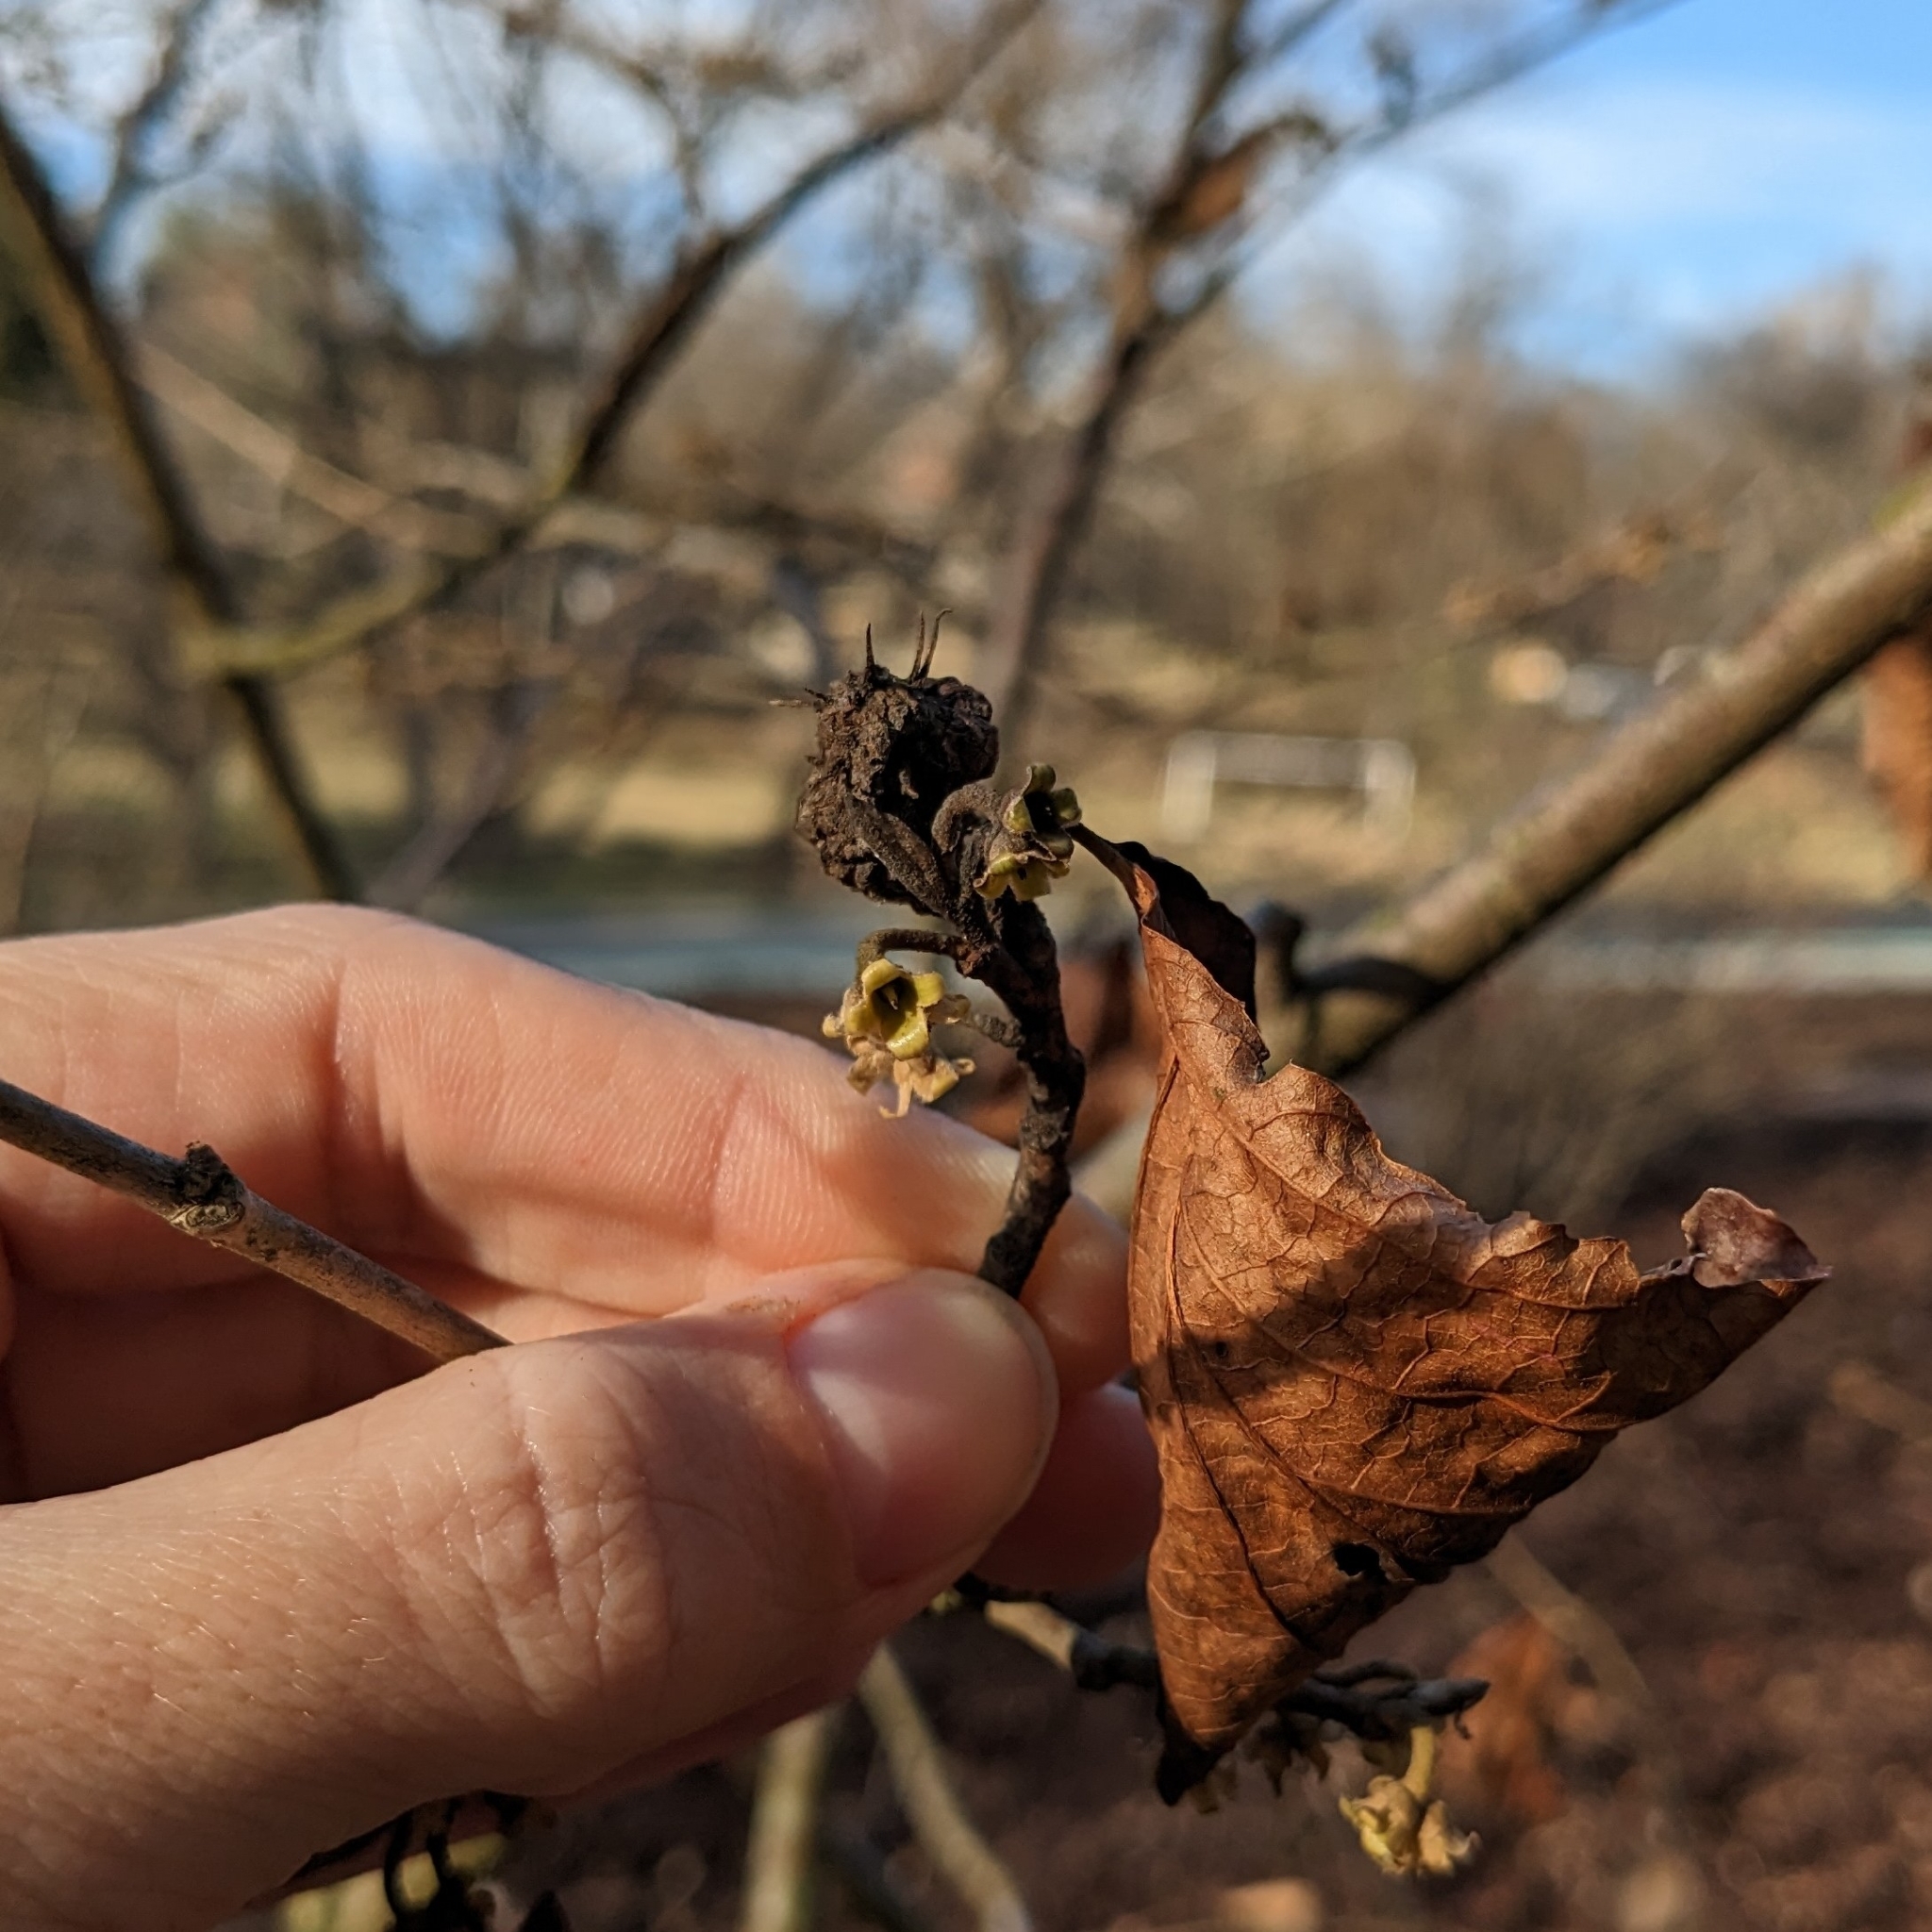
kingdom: Animalia
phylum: Arthropoda
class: Insecta
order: Hemiptera
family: Aphididae
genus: Hamamelistes
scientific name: Hamamelistes spinosus
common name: Witch hazel gall aphid
